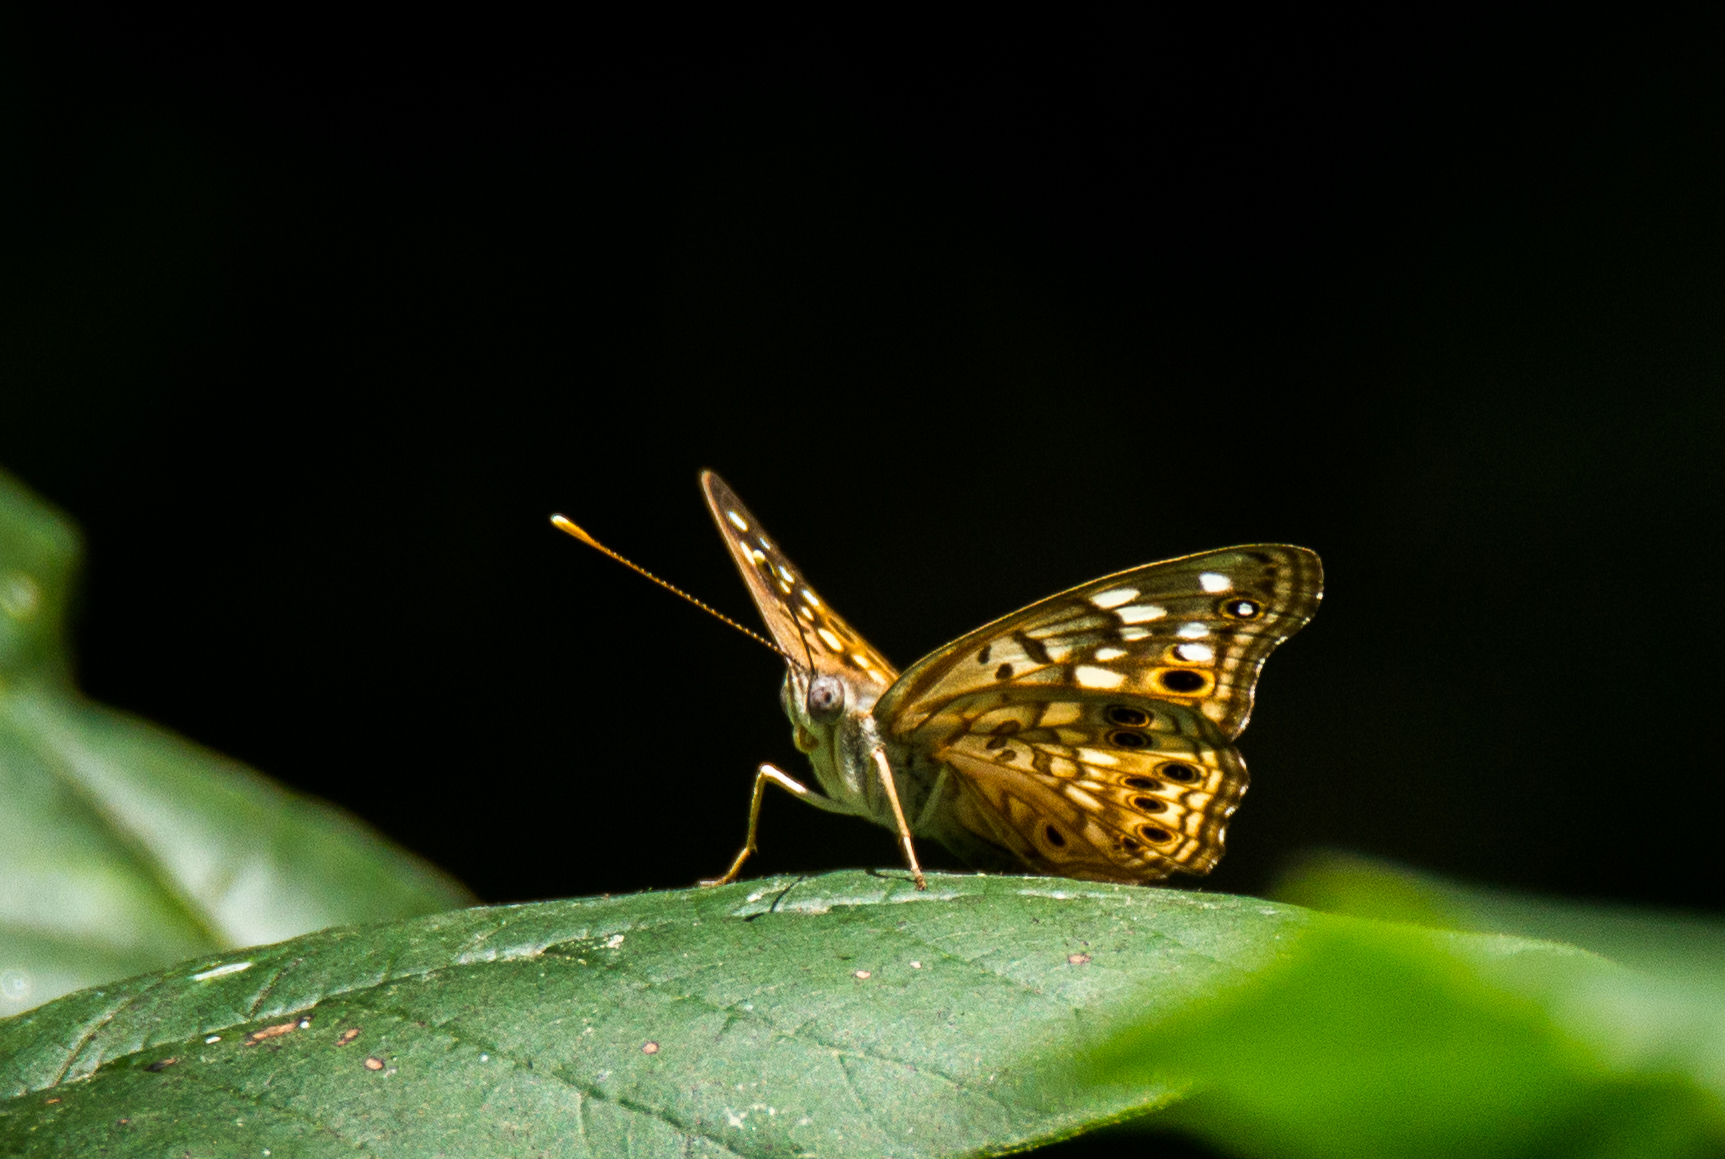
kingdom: Animalia
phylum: Arthropoda
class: Insecta
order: Lepidoptera
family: Nymphalidae
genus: Asterocampa
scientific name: Asterocampa celtis
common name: Hackberry emperor
